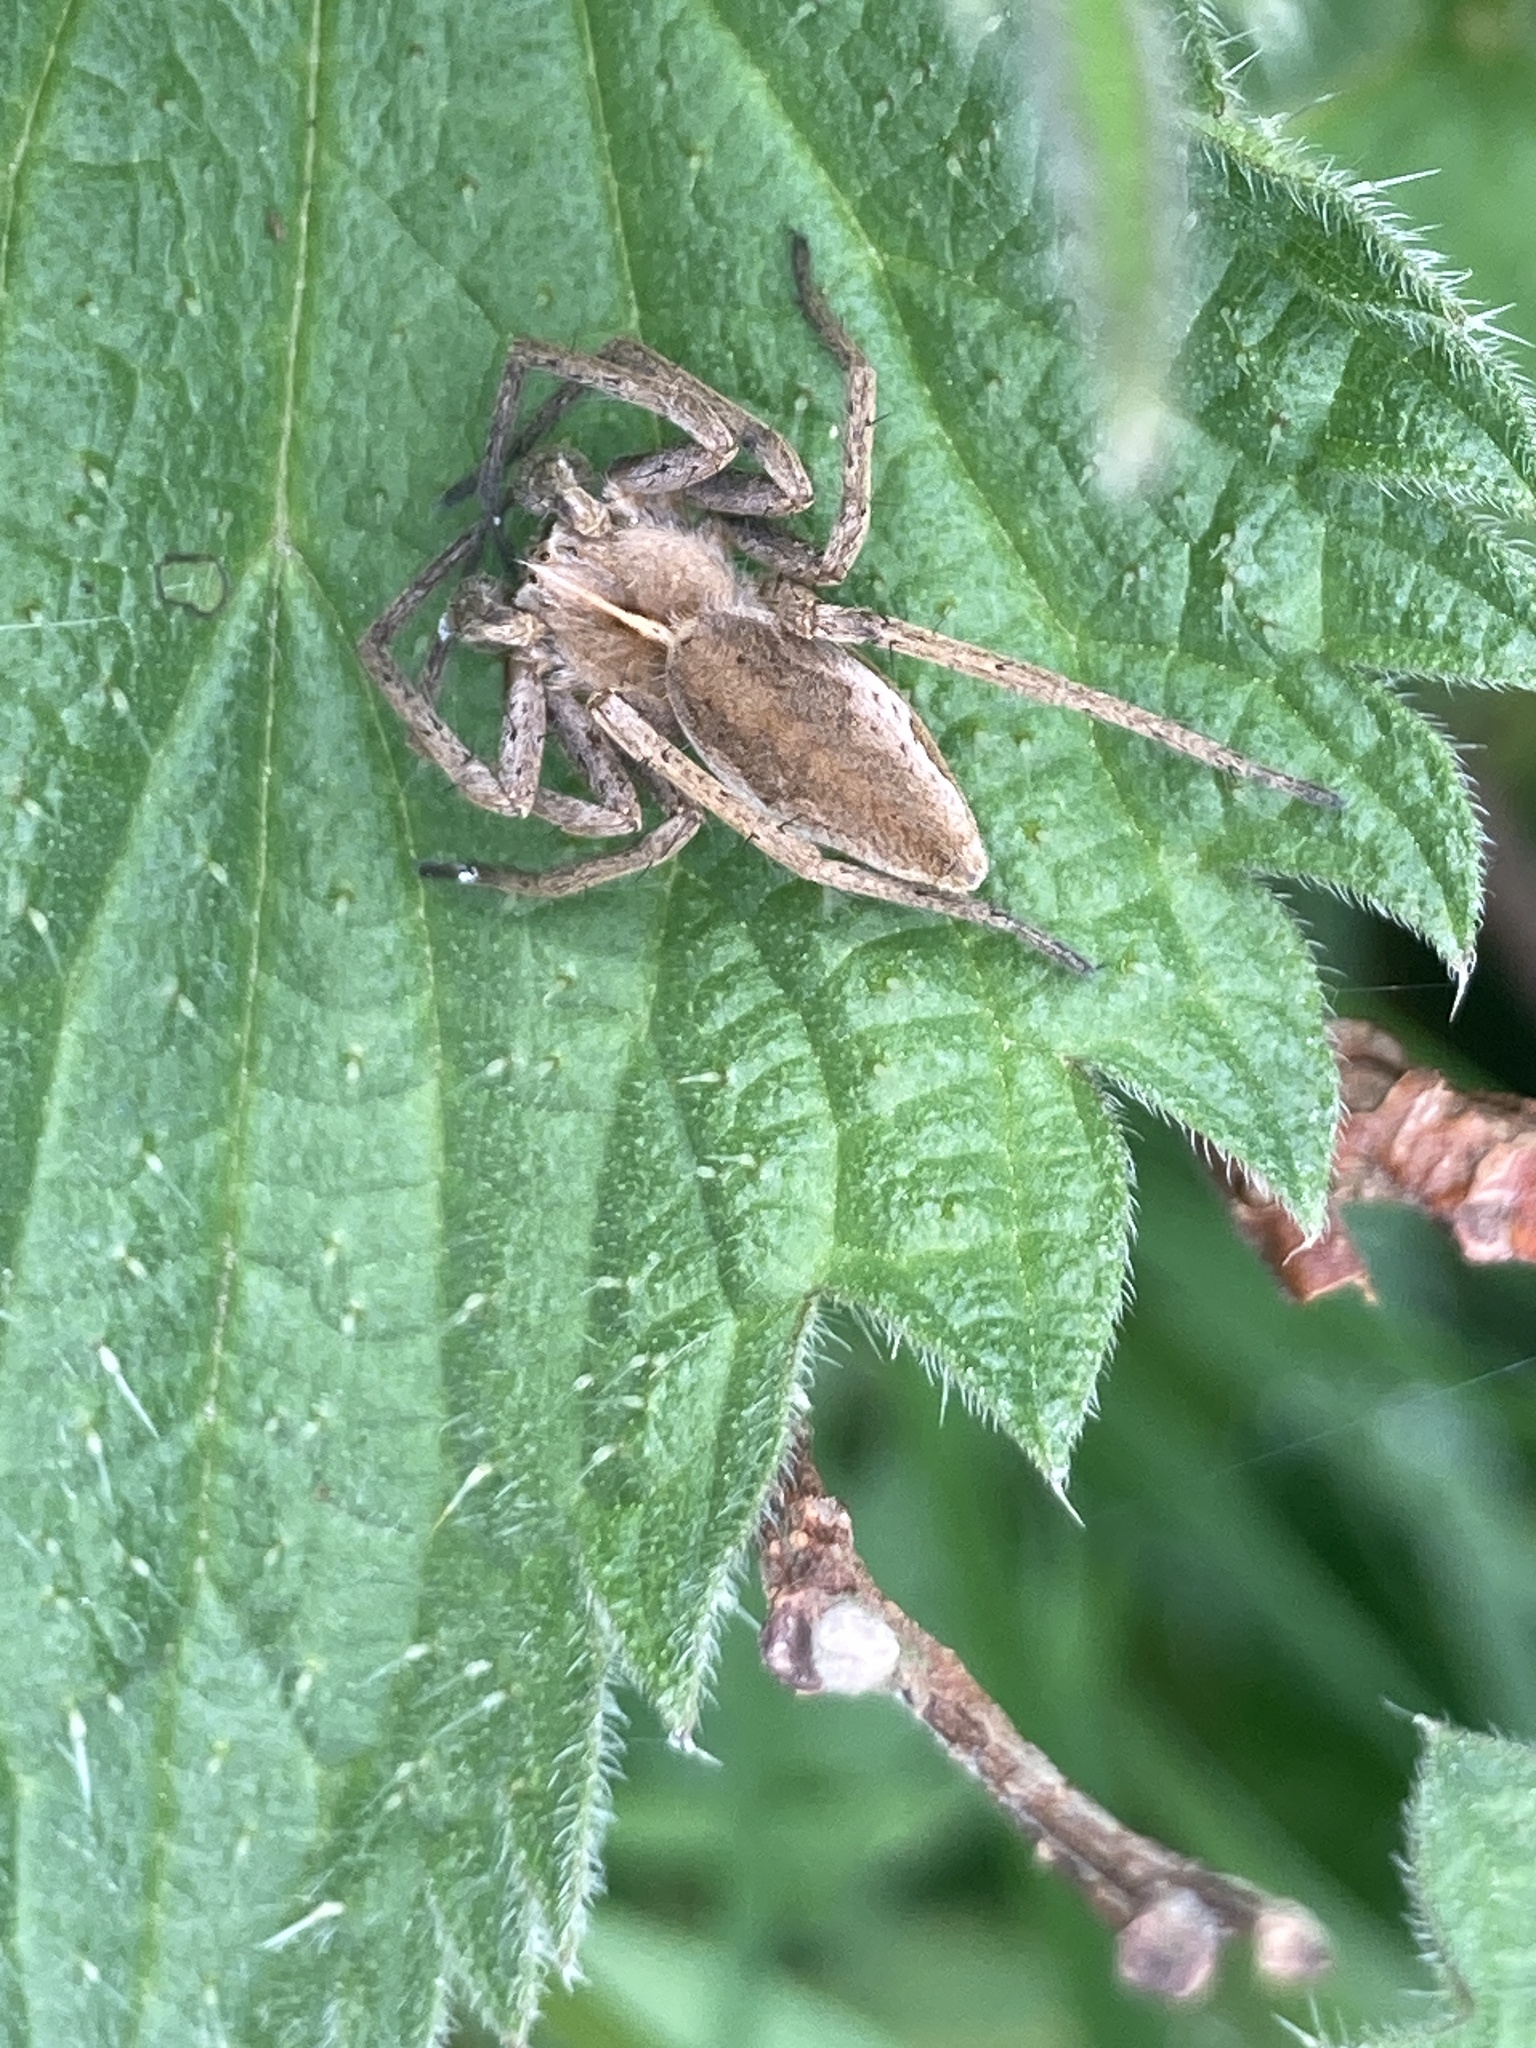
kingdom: Animalia
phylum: Arthropoda
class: Arachnida
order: Araneae
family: Pisauridae
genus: Pisaura
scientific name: Pisaura mirabilis
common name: Tent spider
